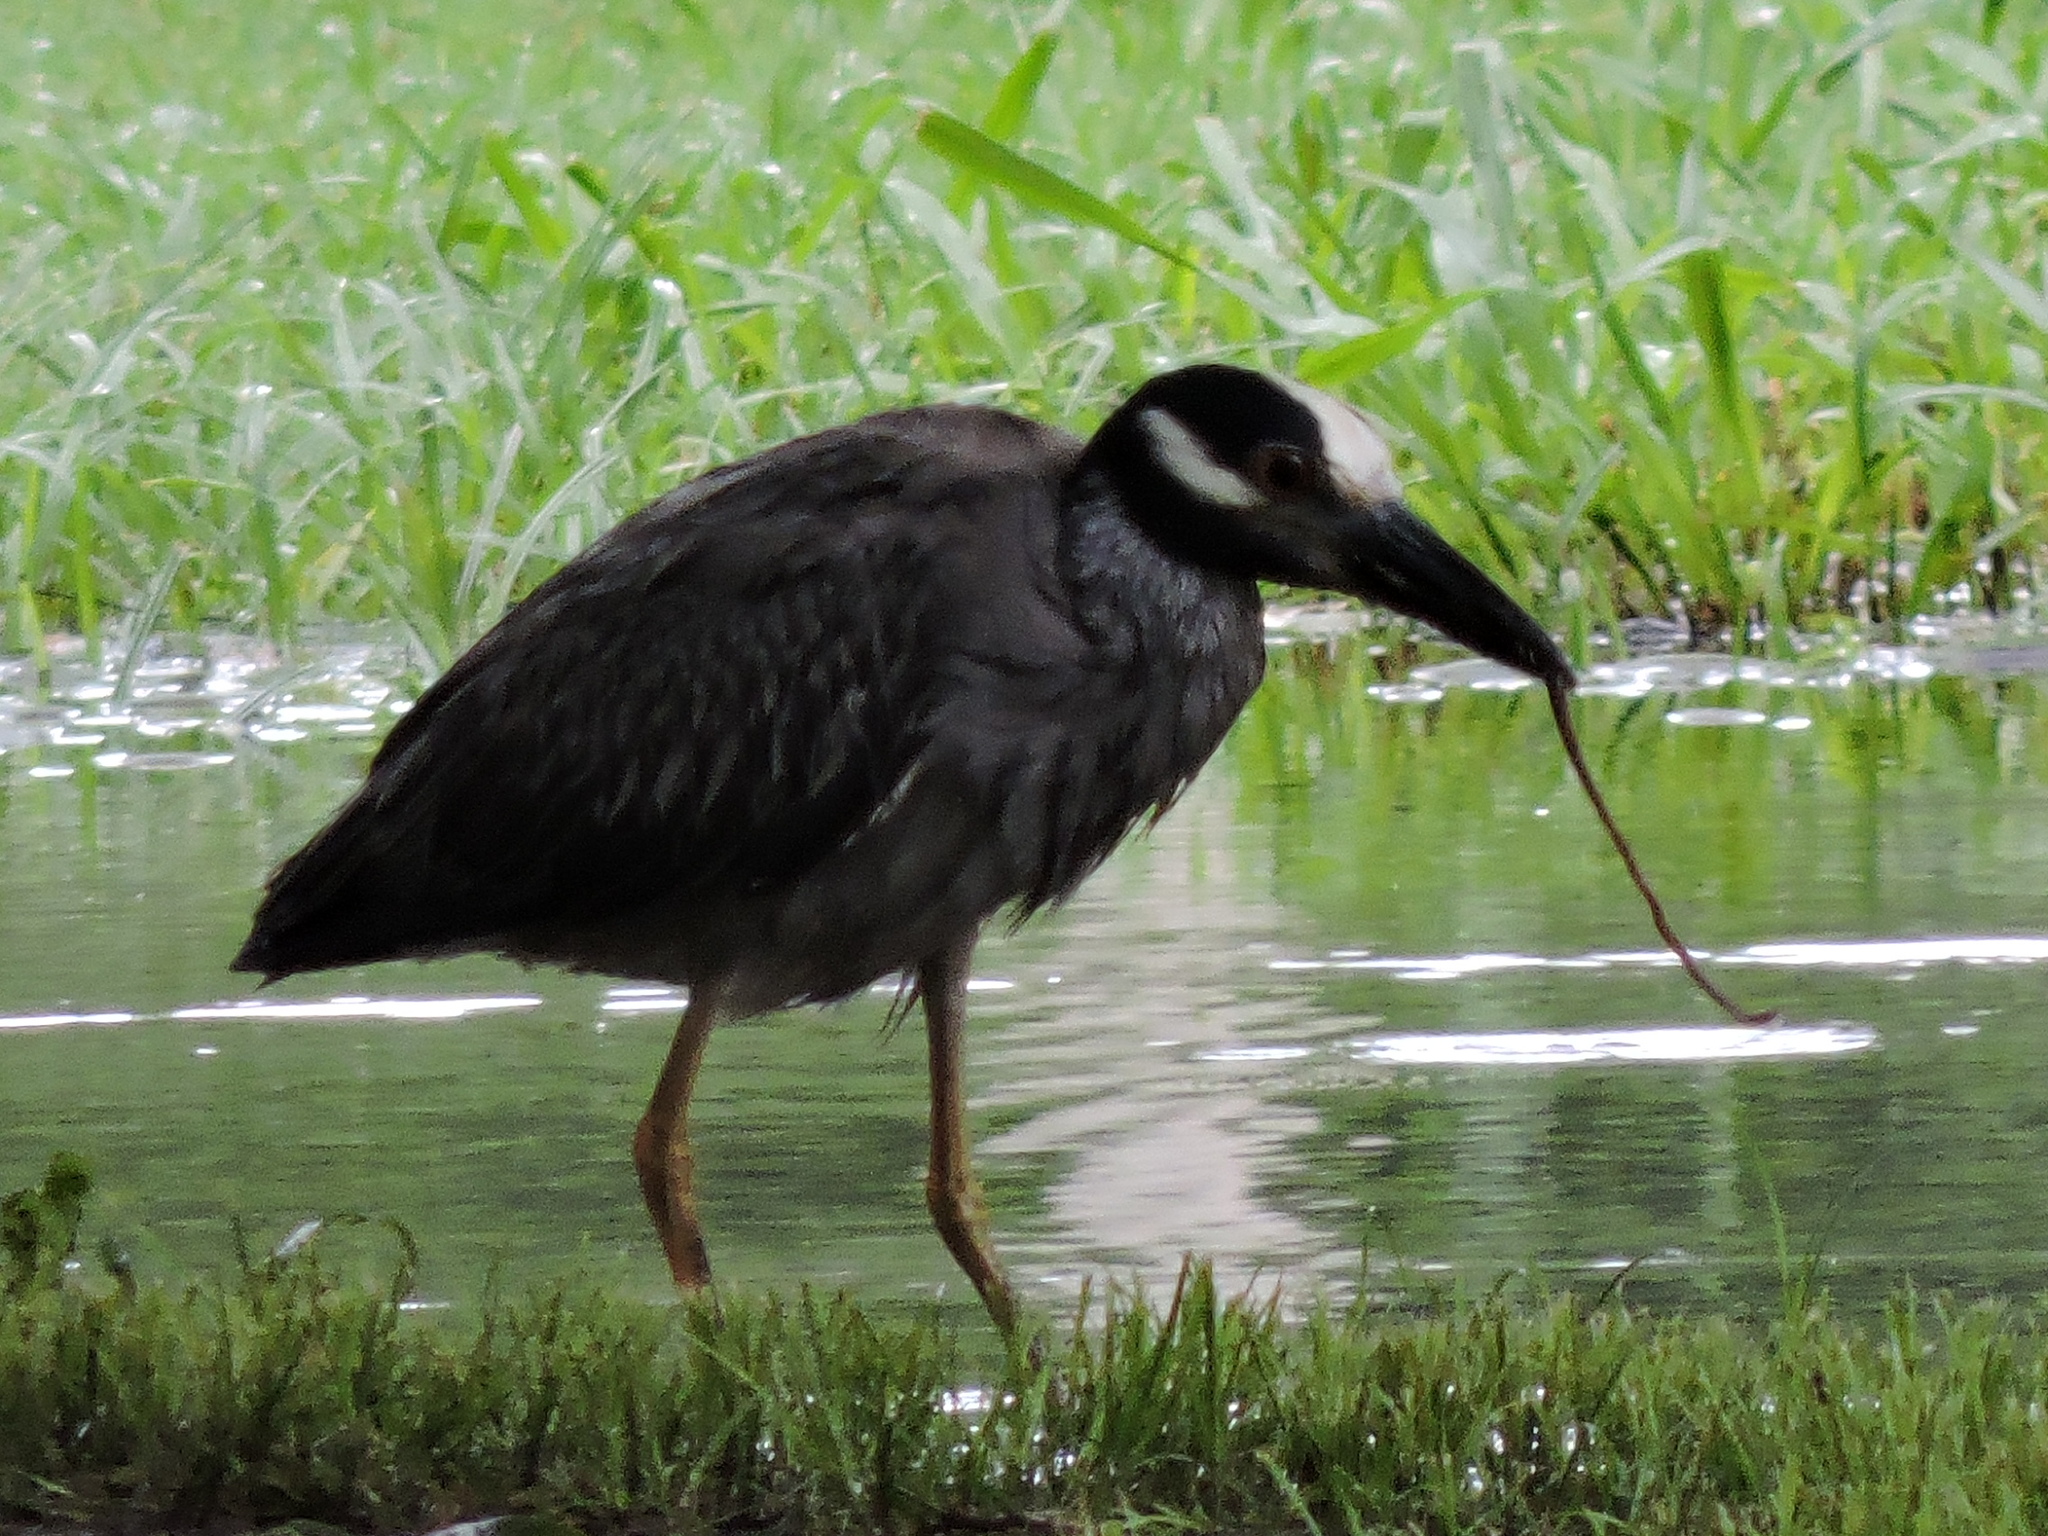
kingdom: Animalia
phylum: Chordata
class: Aves
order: Pelecaniformes
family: Ardeidae
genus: Nyctanassa
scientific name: Nyctanassa violacea
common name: Yellow-crowned night heron
